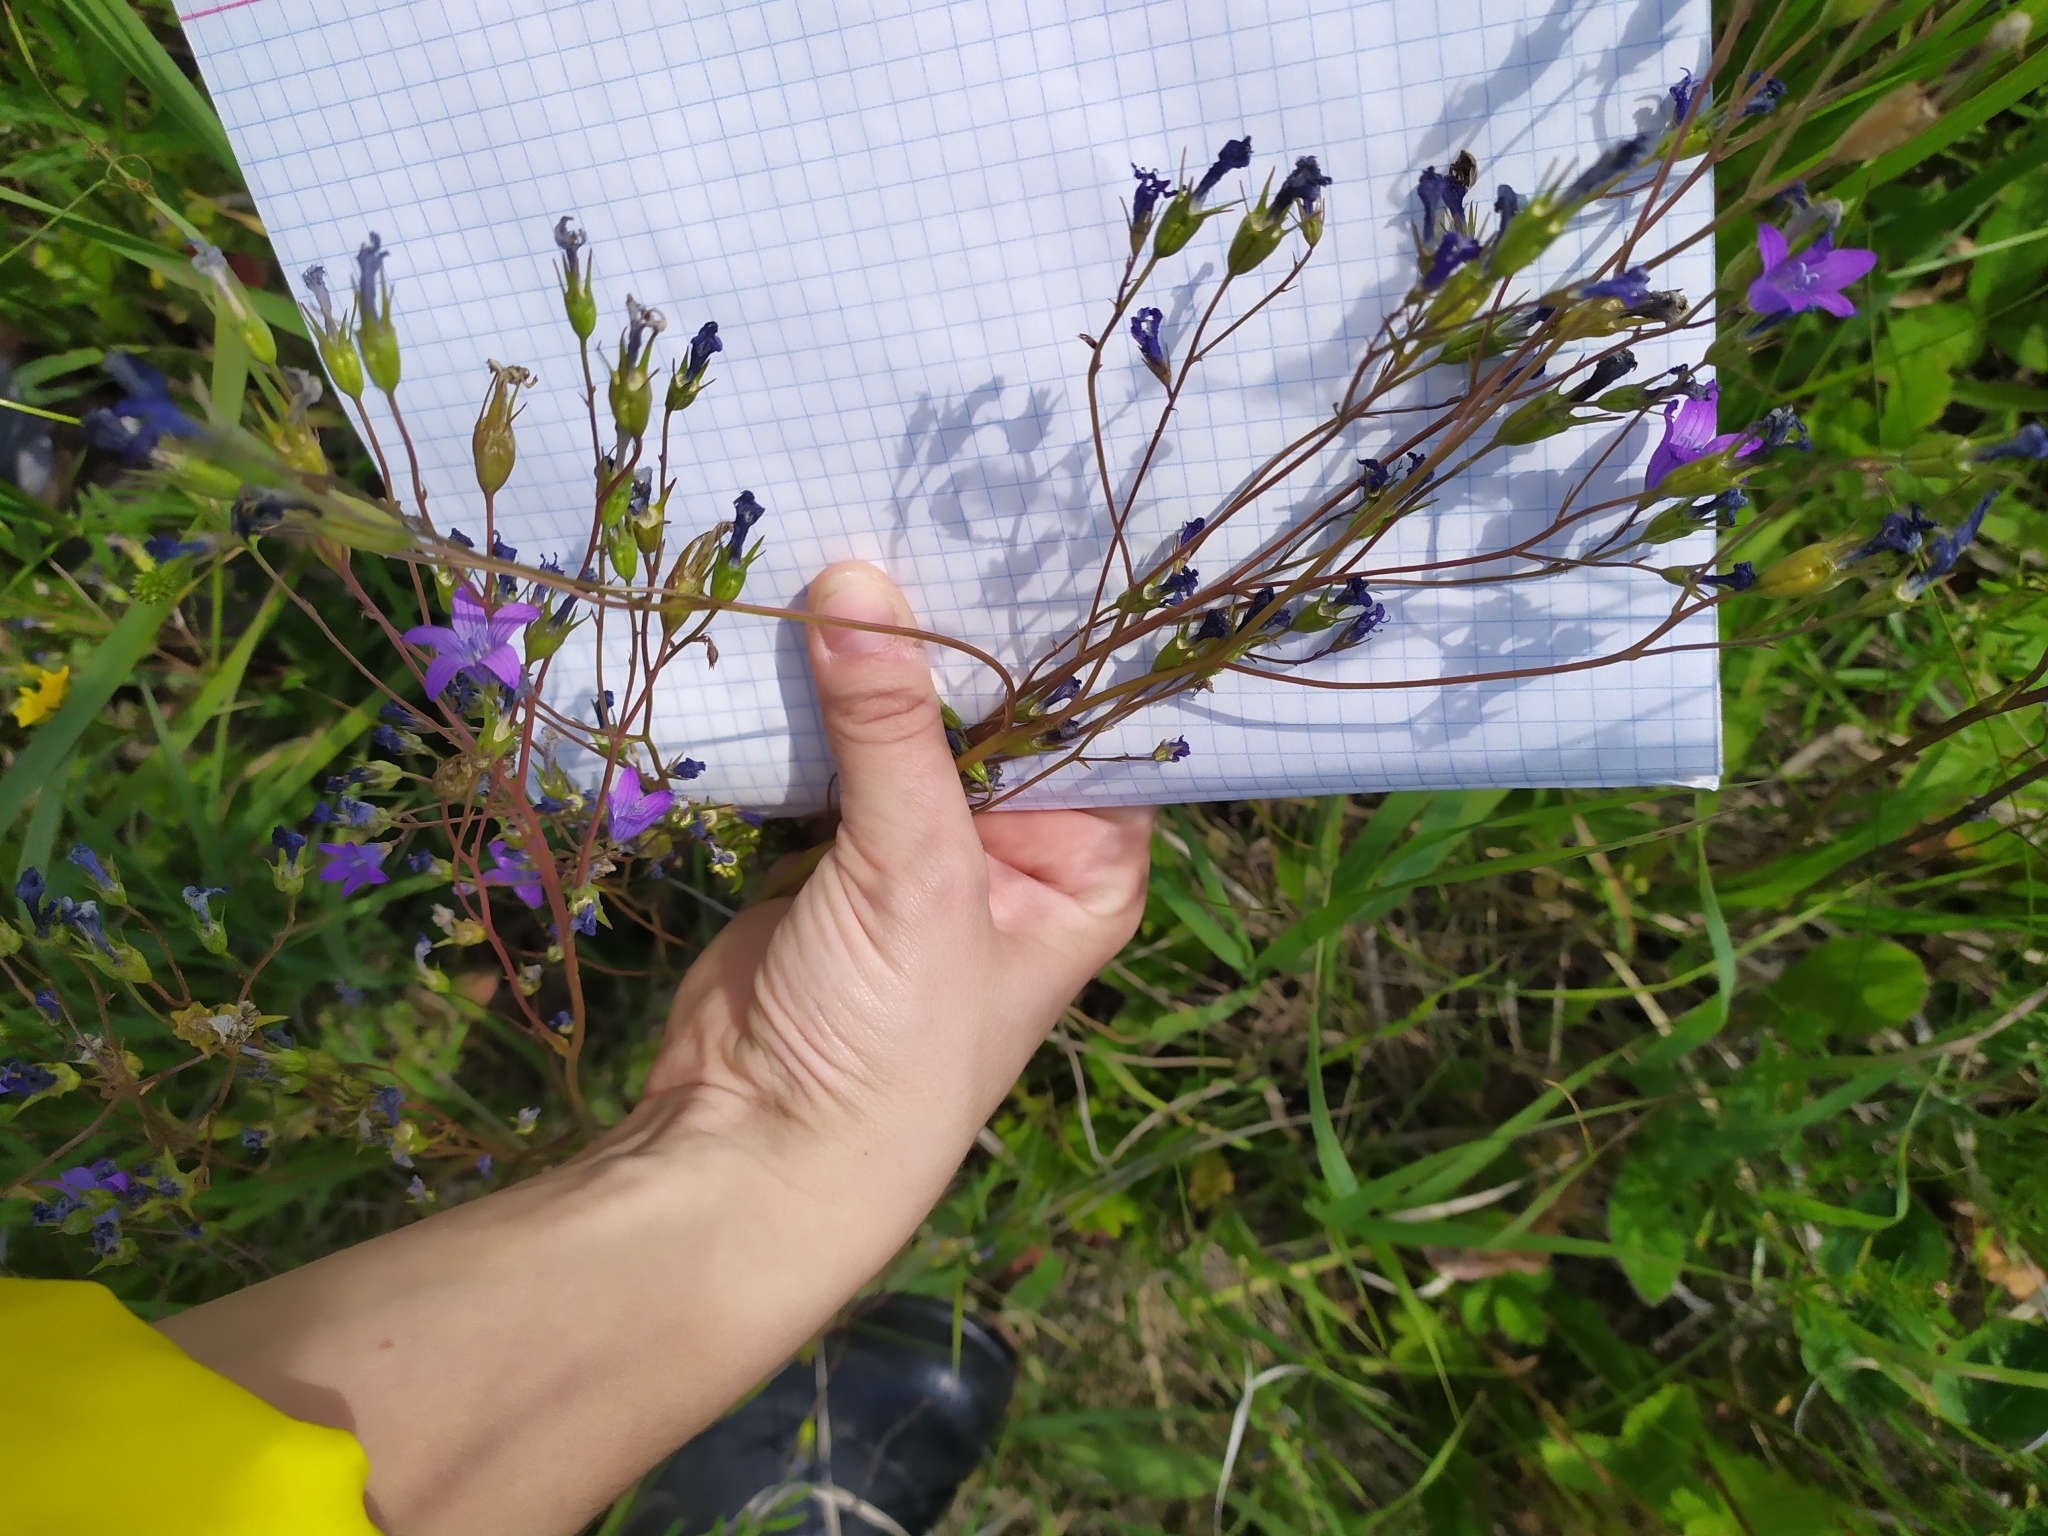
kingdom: Plantae
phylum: Tracheophyta
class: Magnoliopsida
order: Asterales
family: Campanulaceae
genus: Campanula
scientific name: Campanula patula
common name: Spreading bellflower
